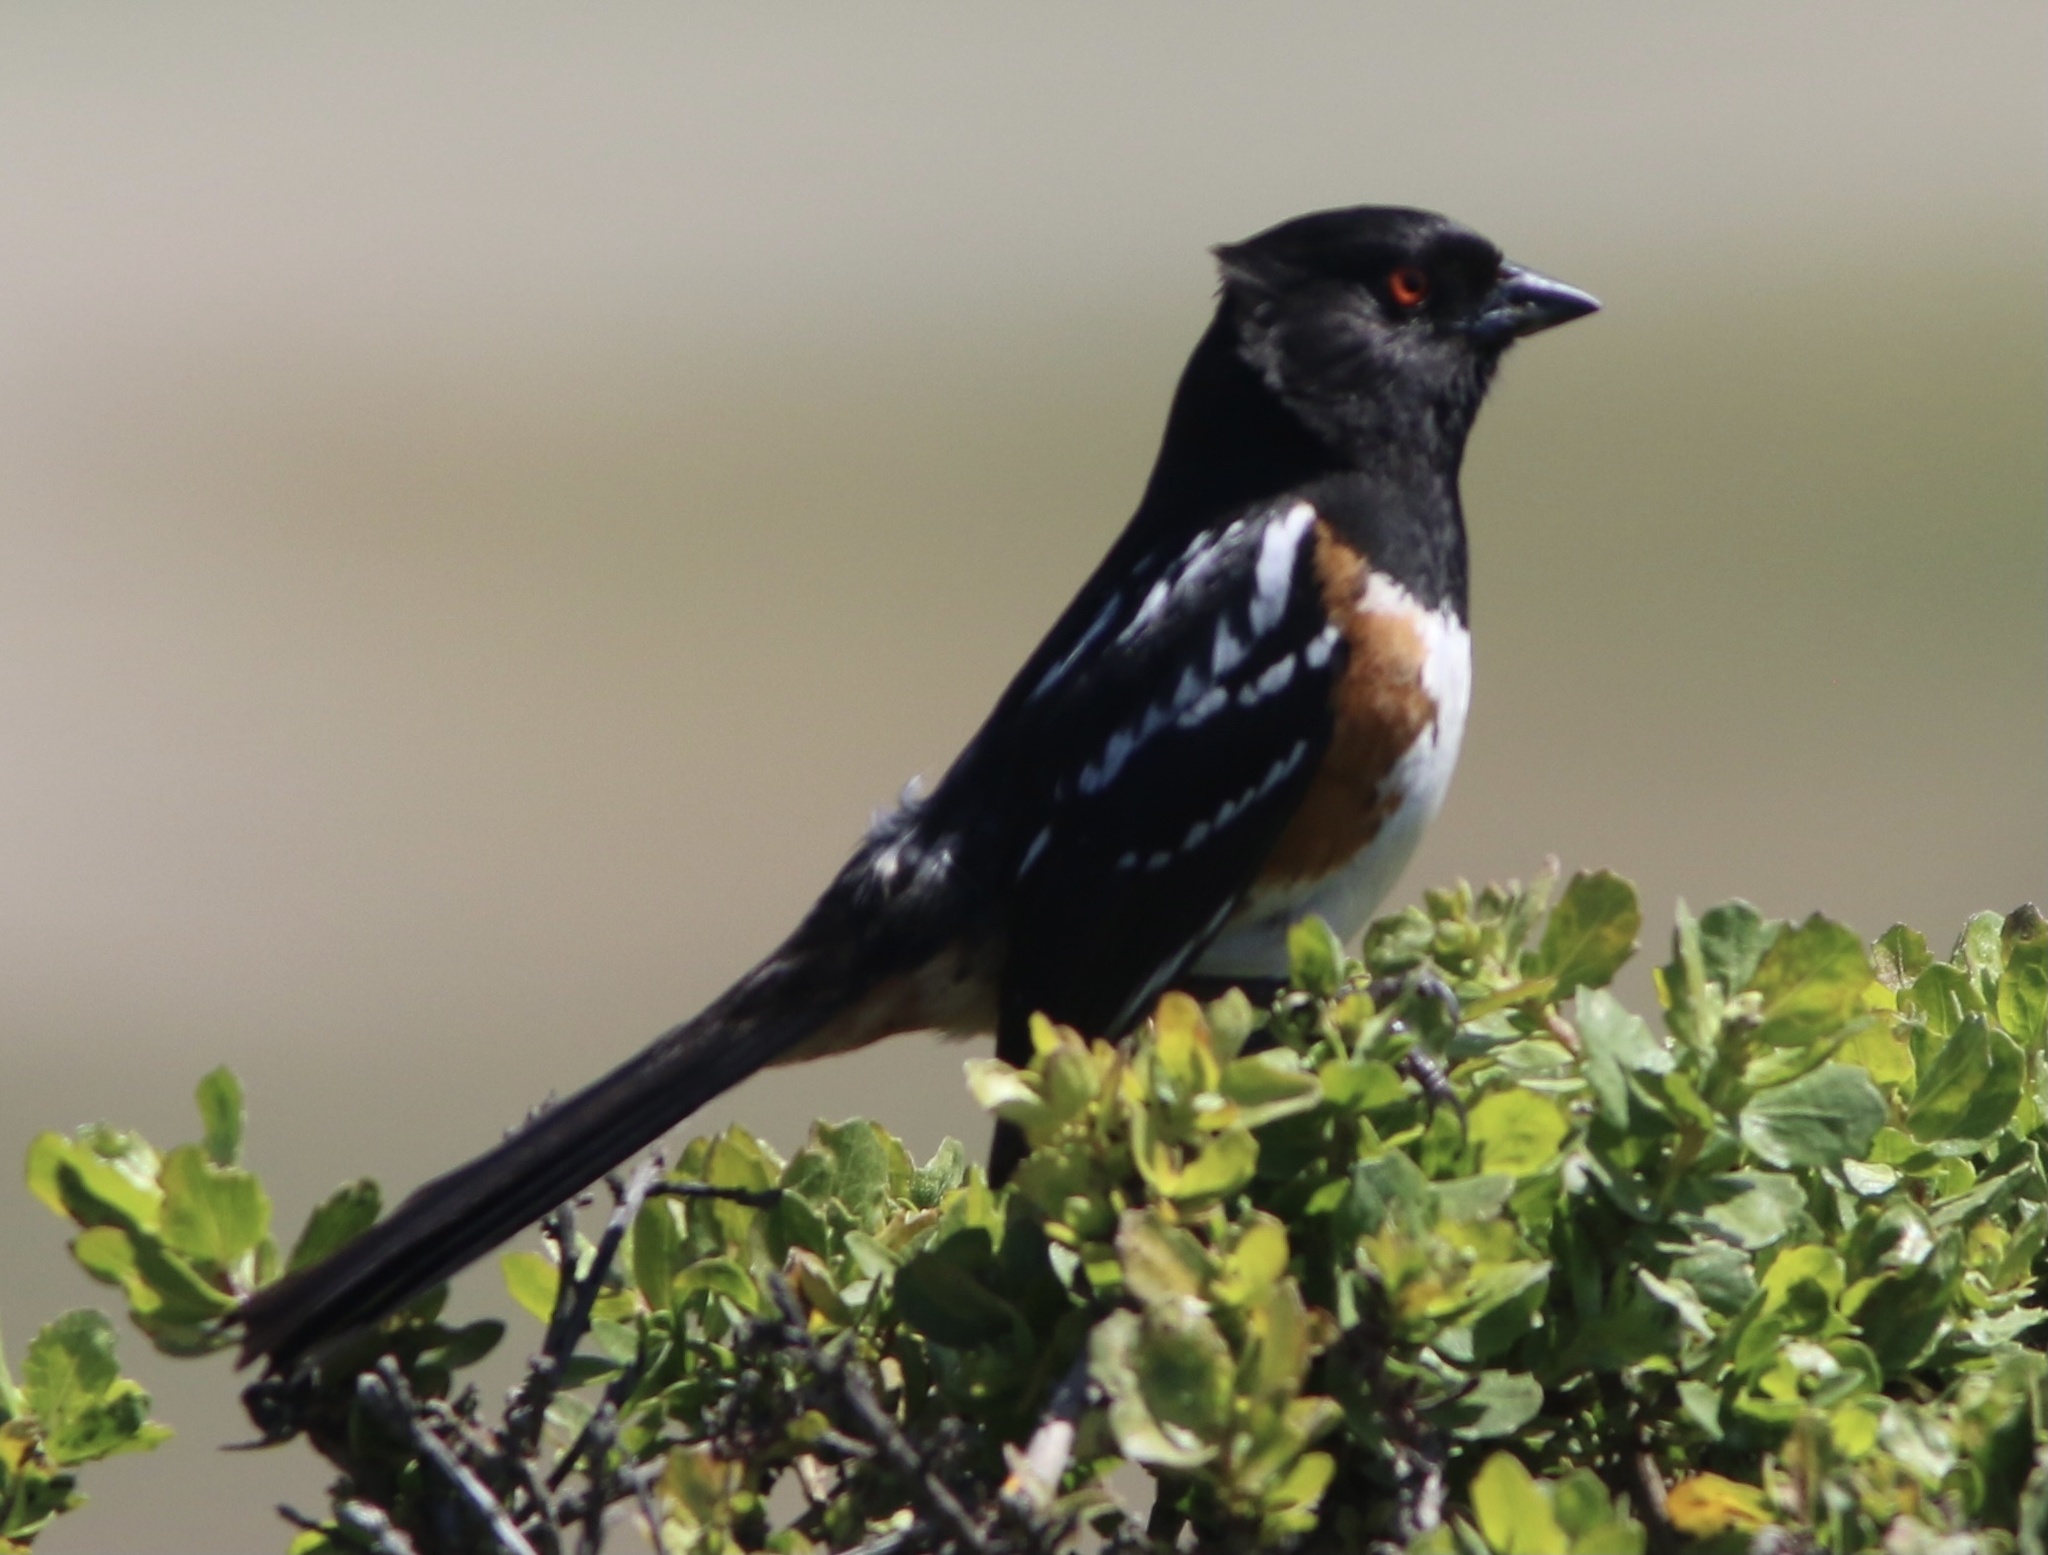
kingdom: Animalia
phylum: Chordata
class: Aves
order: Passeriformes
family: Passerellidae
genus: Pipilo
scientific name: Pipilo maculatus
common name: Spotted towhee
